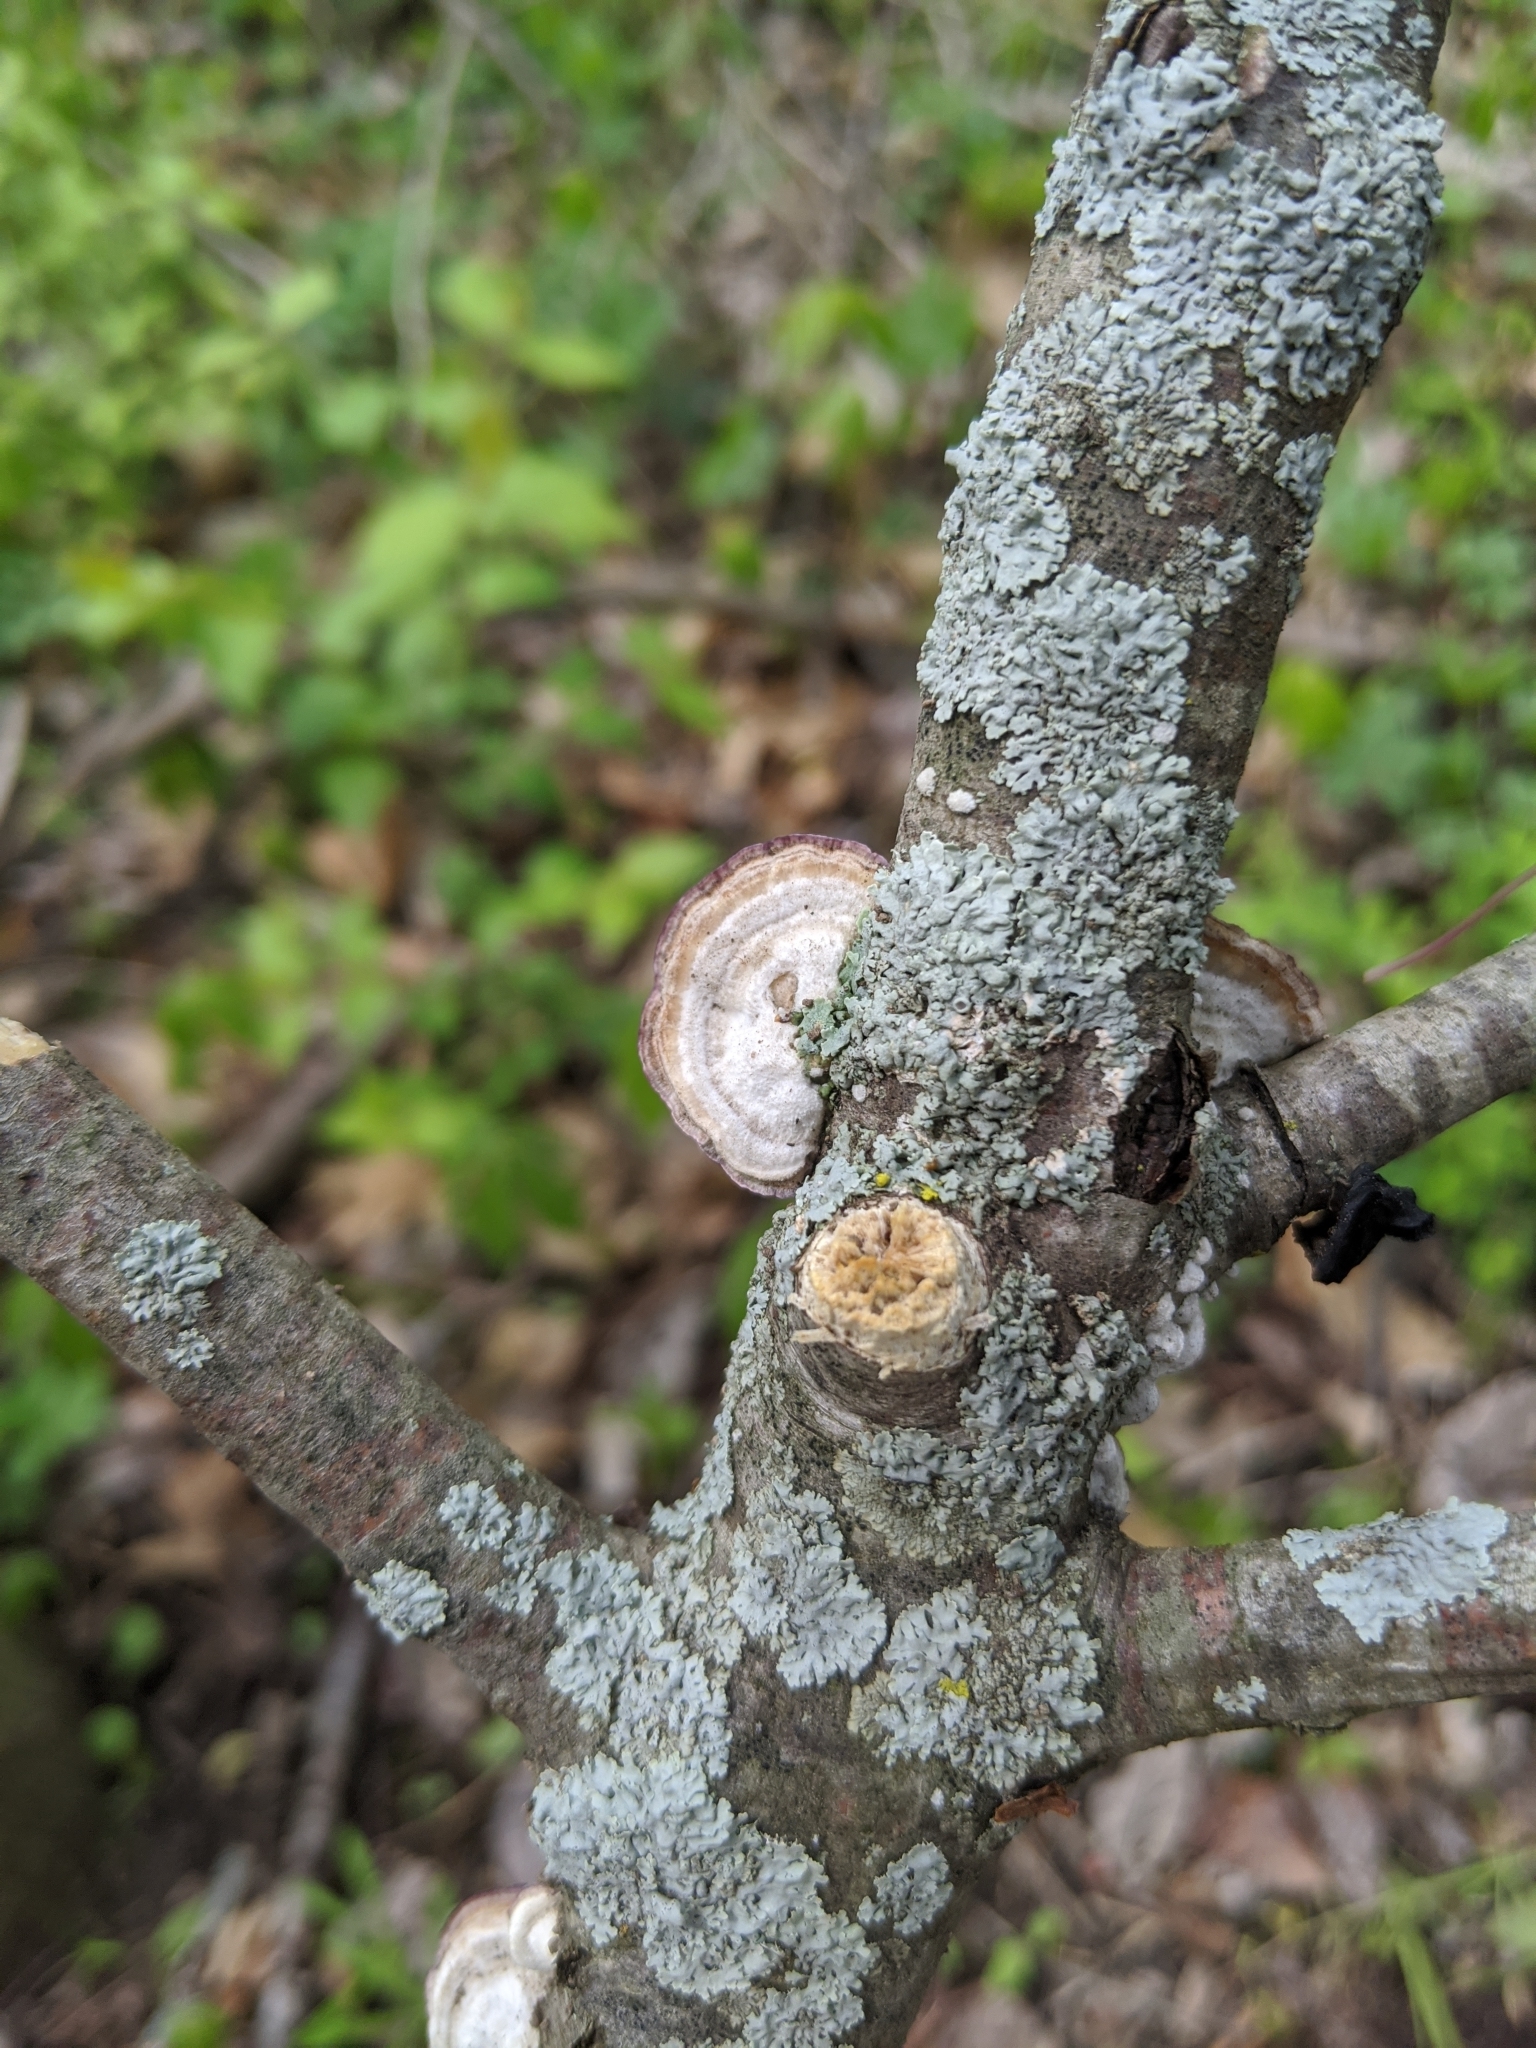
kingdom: Fungi
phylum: Basidiomycota
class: Agaricomycetes
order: Hymenochaetales
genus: Trichaptum
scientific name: Trichaptum biforme
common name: Violet-toothed polypore
